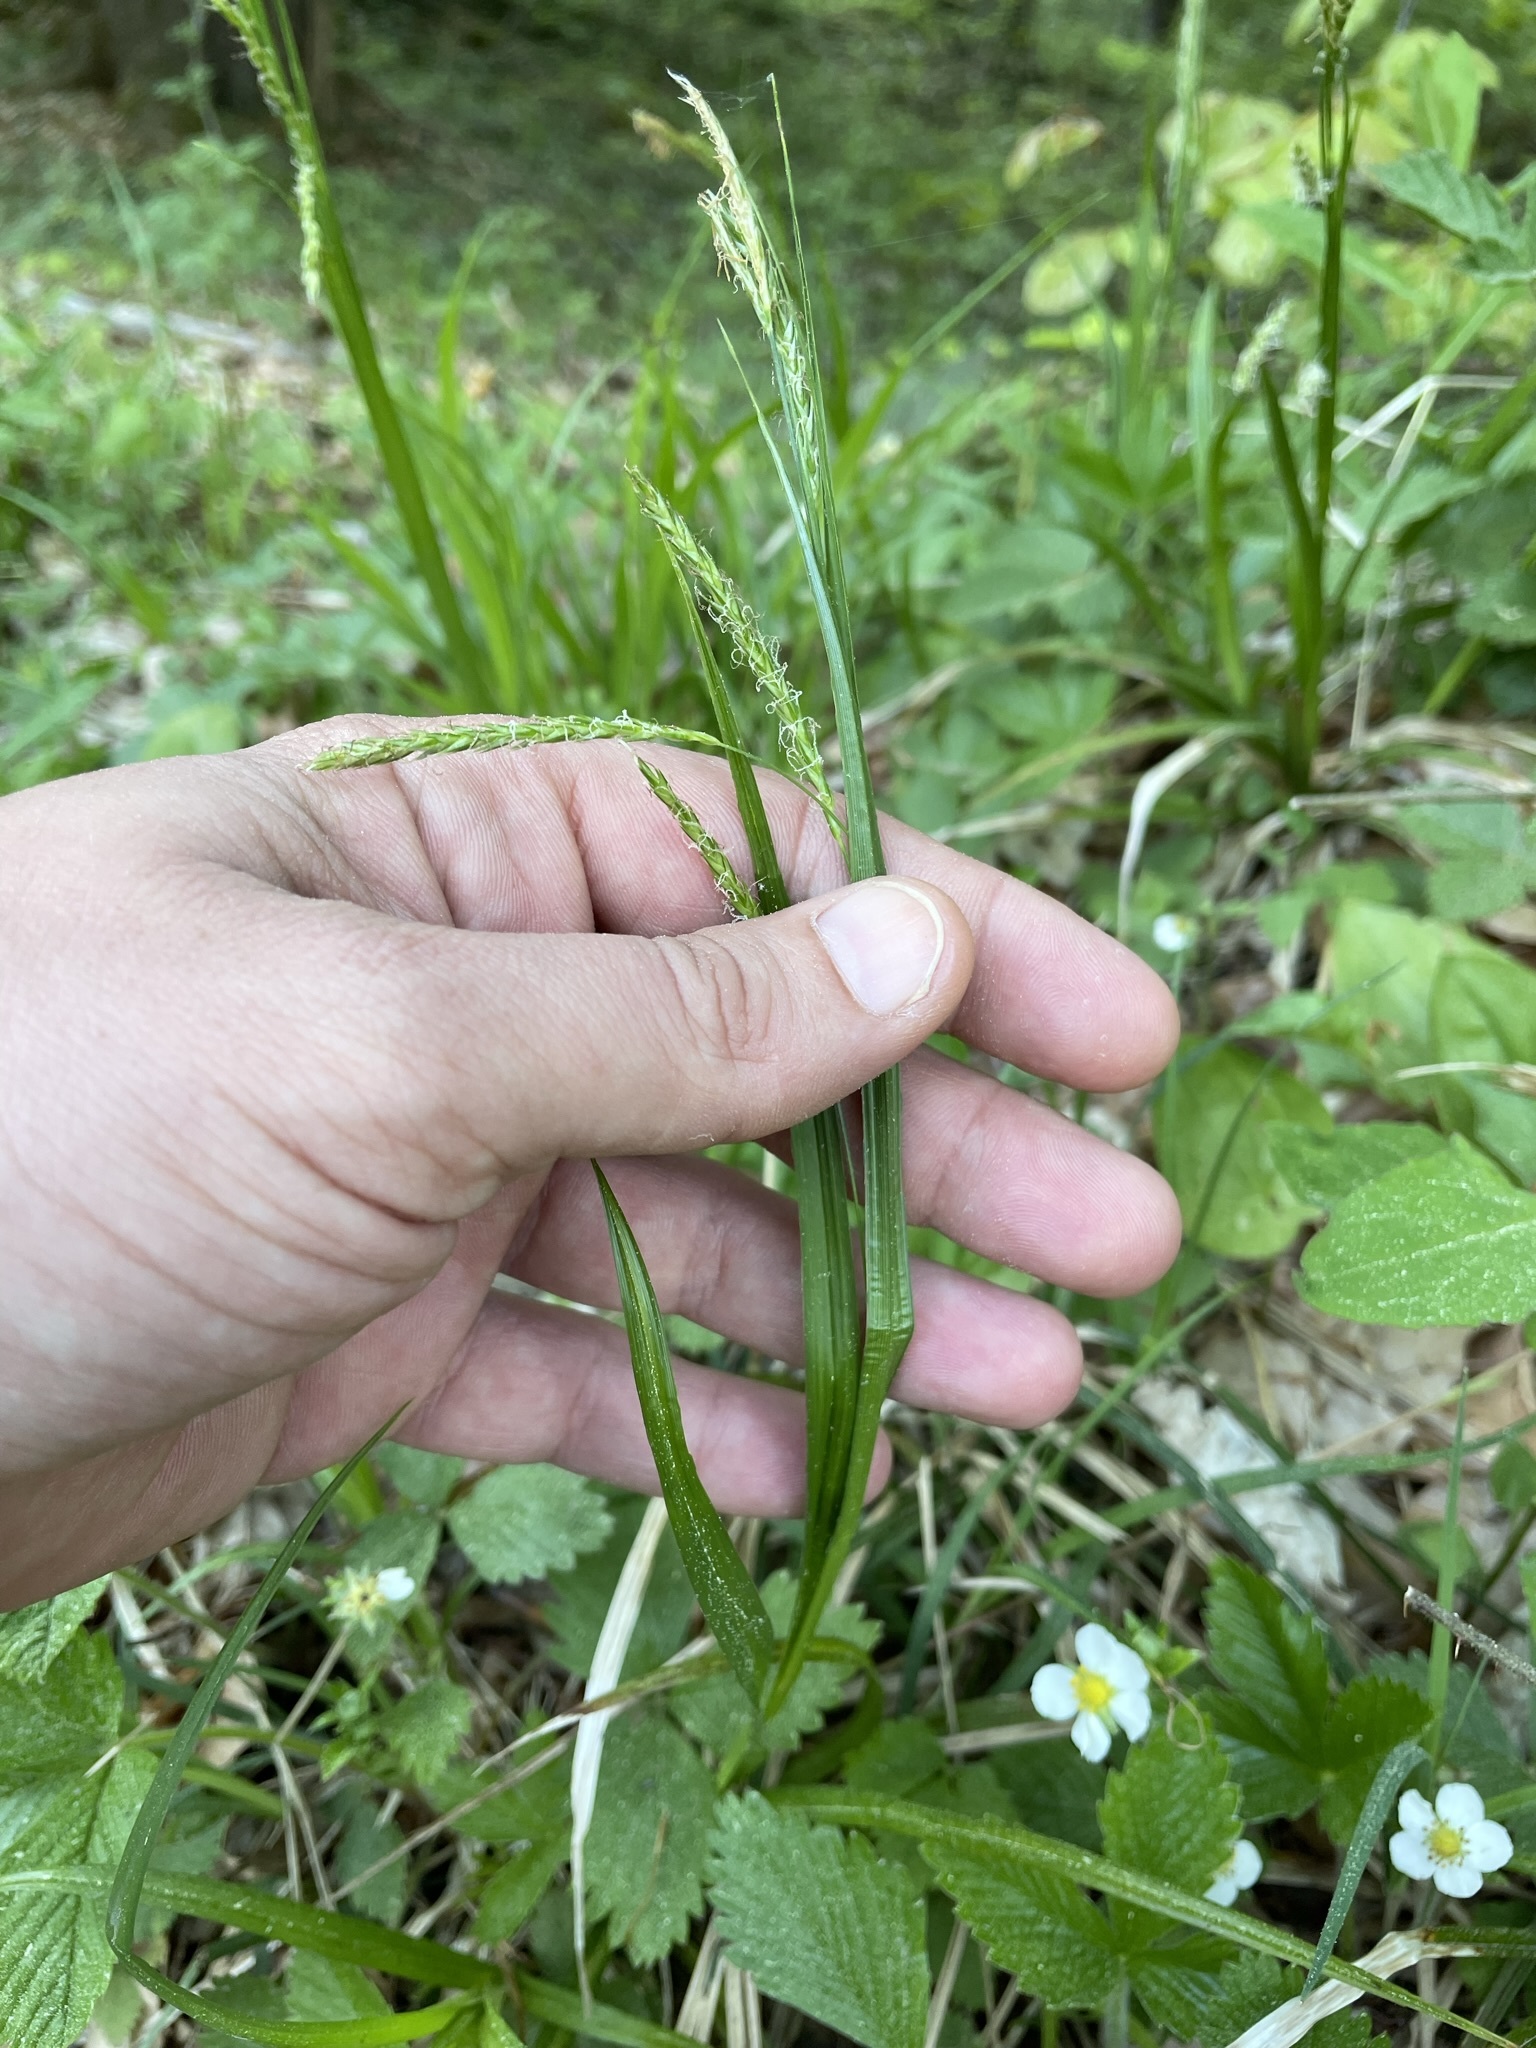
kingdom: Plantae
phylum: Tracheophyta
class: Liliopsida
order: Poales
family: Cyperaceae
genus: Carex
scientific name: Carex sylvatica
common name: Wood-sedge
